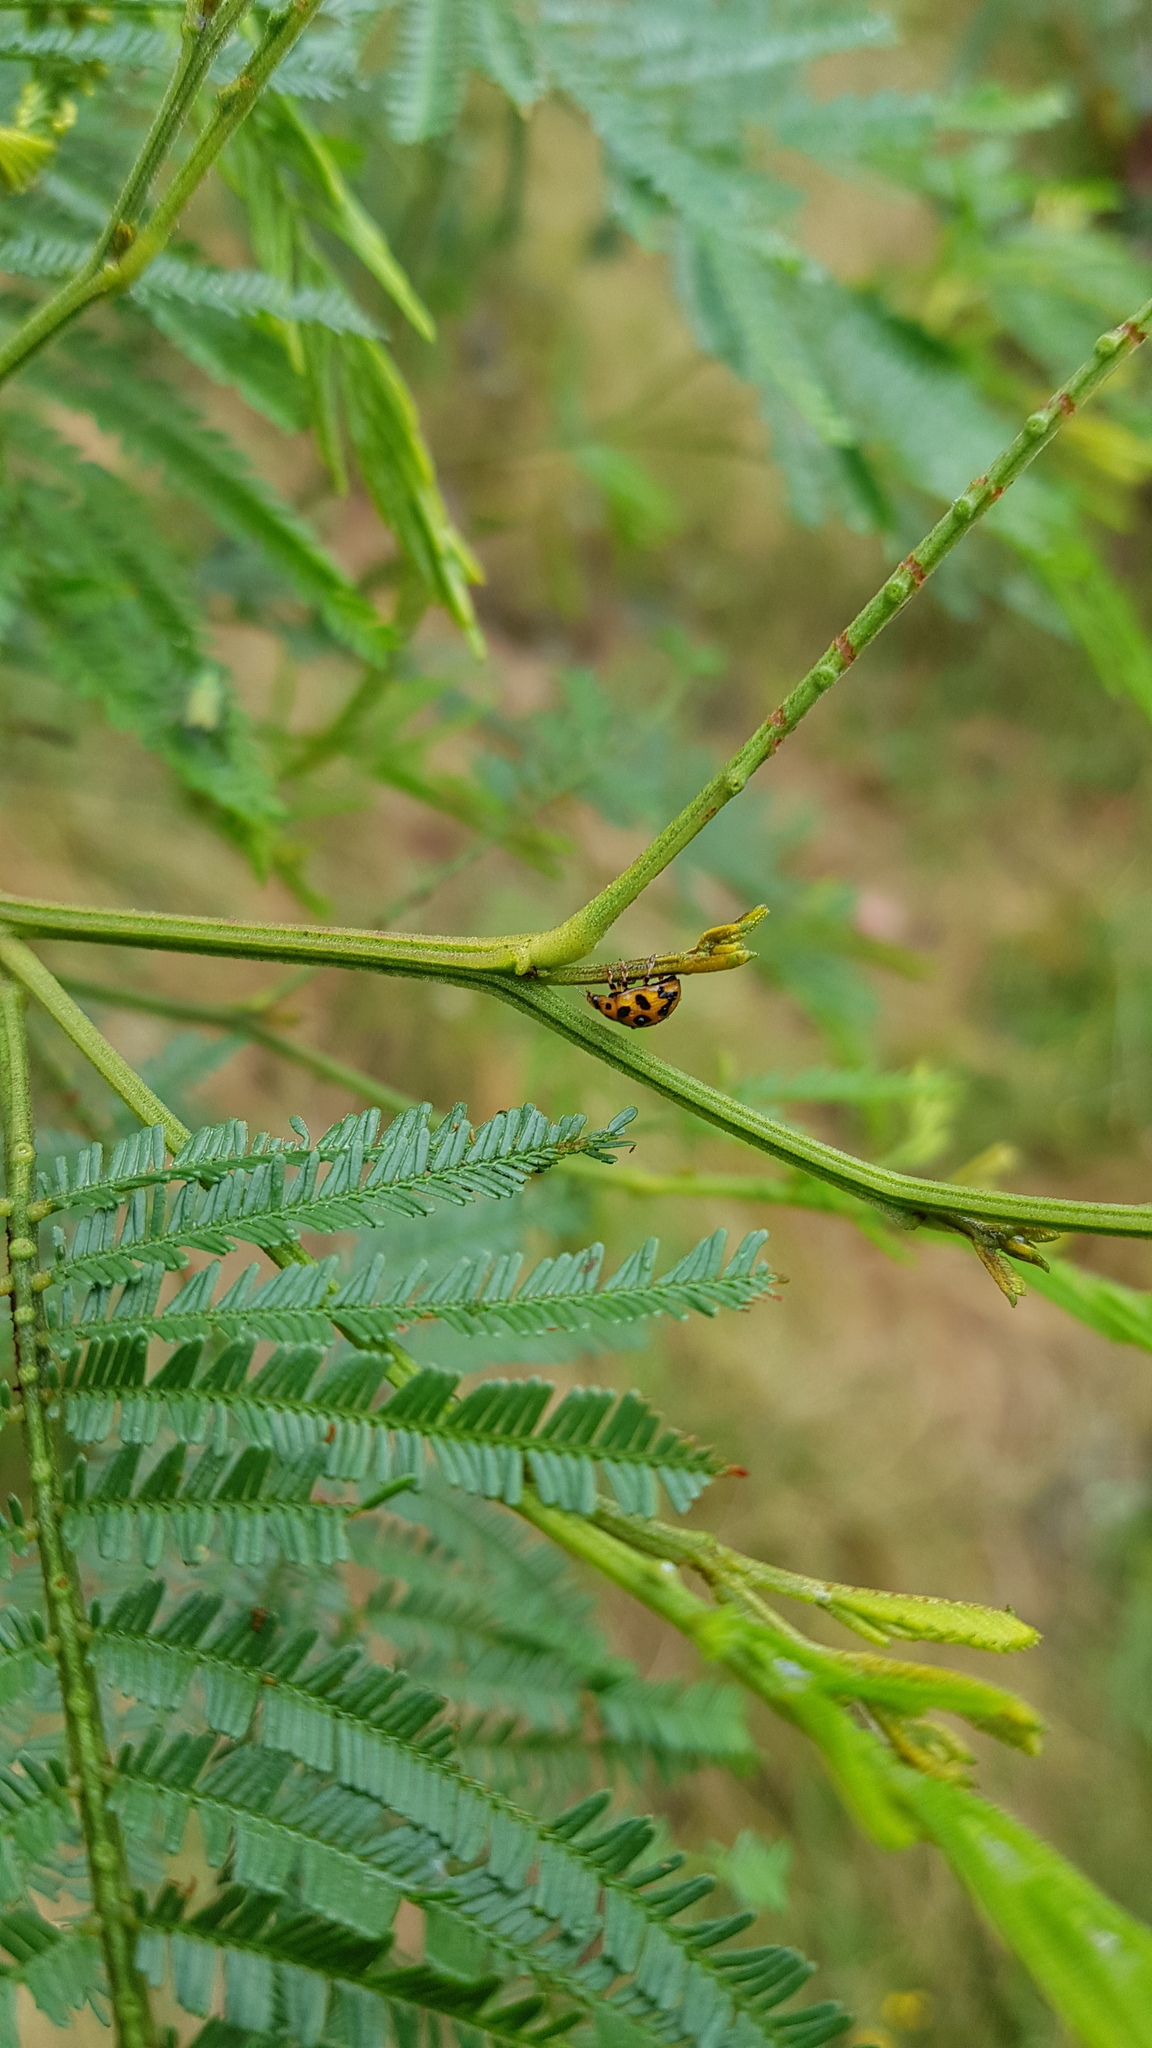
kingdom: Animalia
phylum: Arthropoda
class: Insecta
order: Coleoptera
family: Chrysomelidae
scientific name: Chrysomelidae
